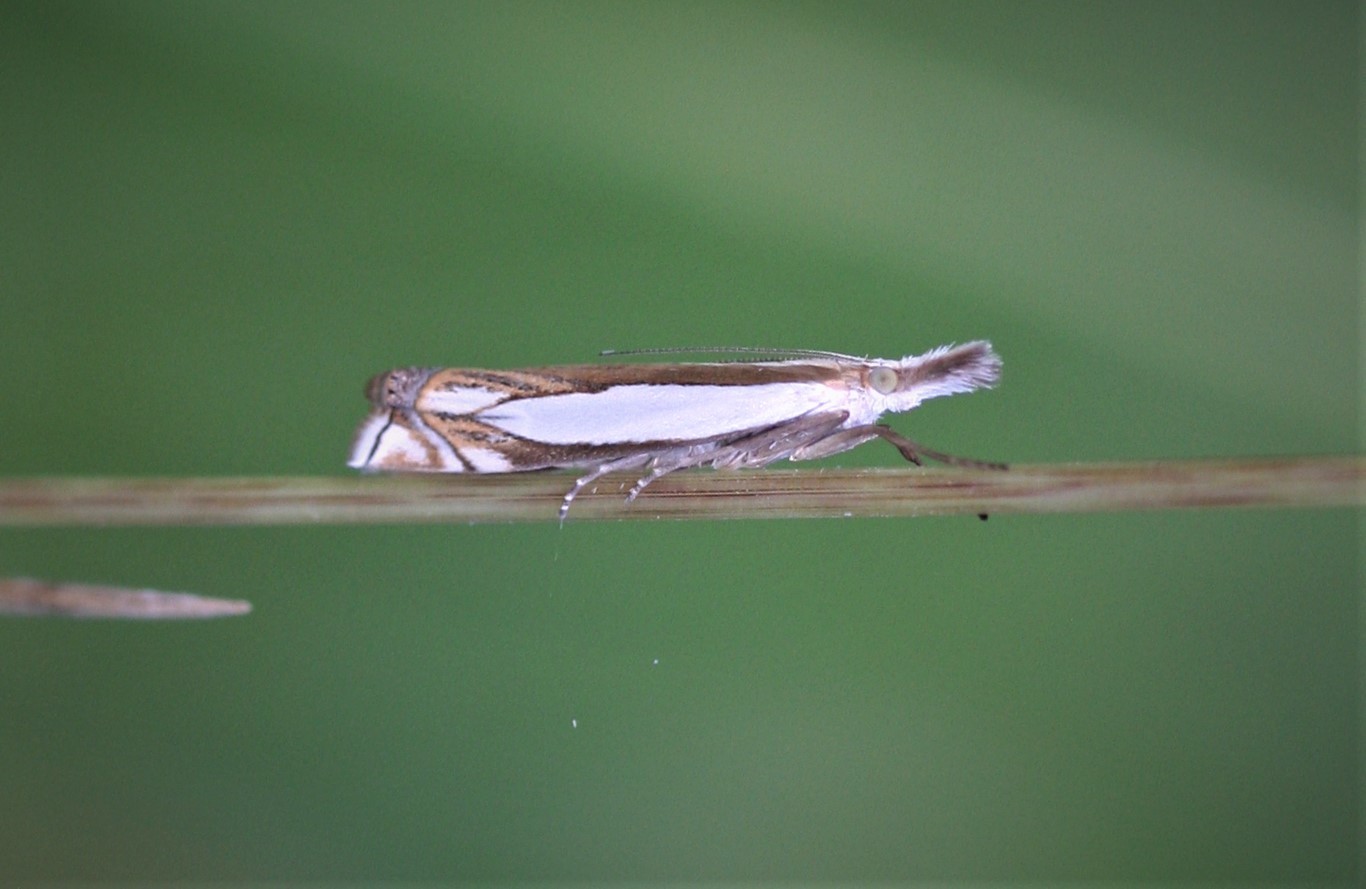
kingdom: Animalia
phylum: Arthropoda
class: Insecta
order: Lepidoptera
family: Crambidae
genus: Crambus
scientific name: Crambus pascuella
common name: Inlaid grass-veneer
